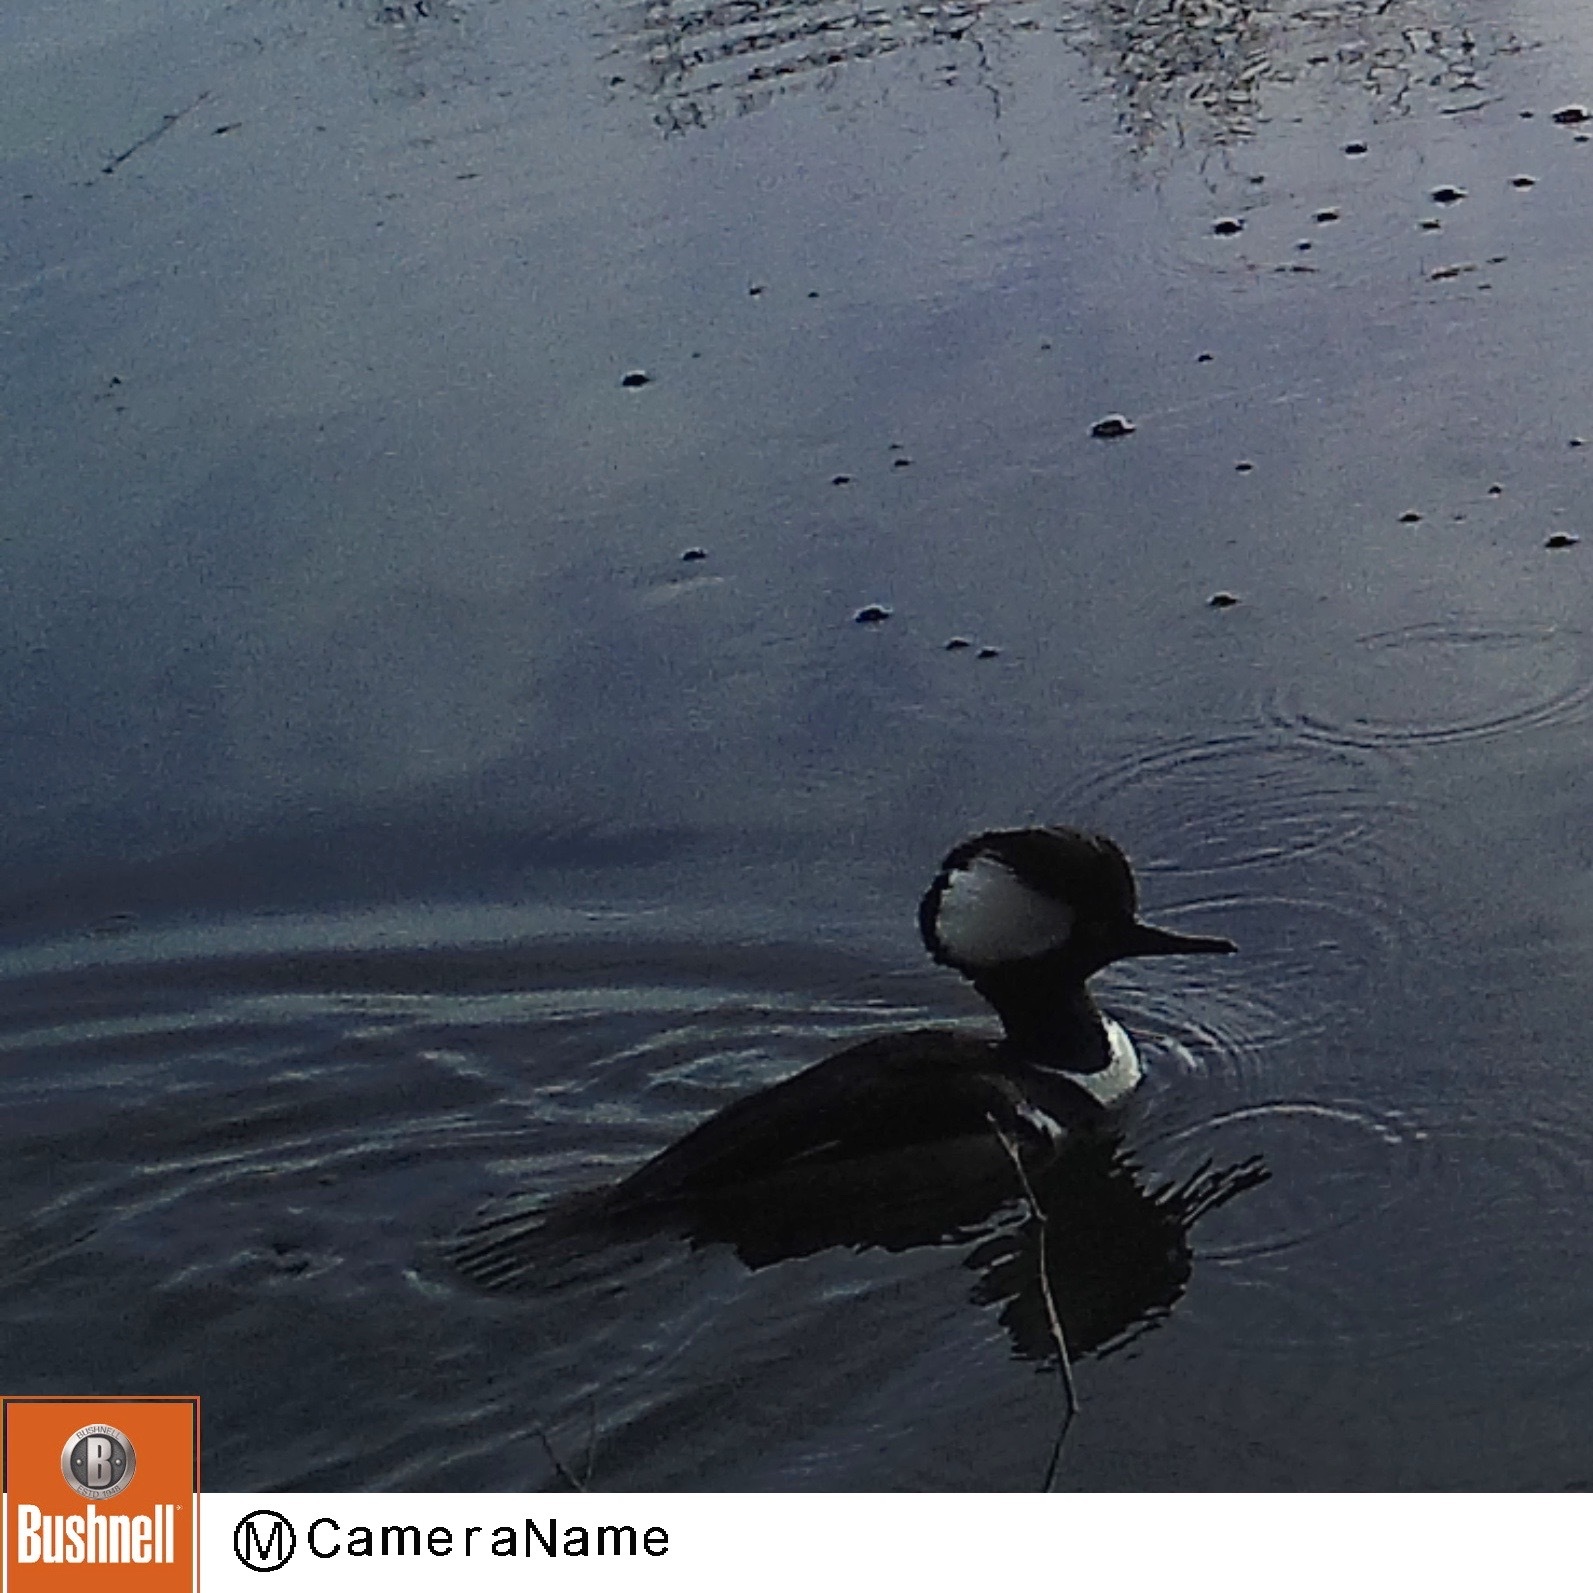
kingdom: Animalia
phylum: Chordata
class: Aves
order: Anseriformes
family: Anatidae
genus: Lophodytes
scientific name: Lophodytes cucullatus
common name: Hooded merganser
